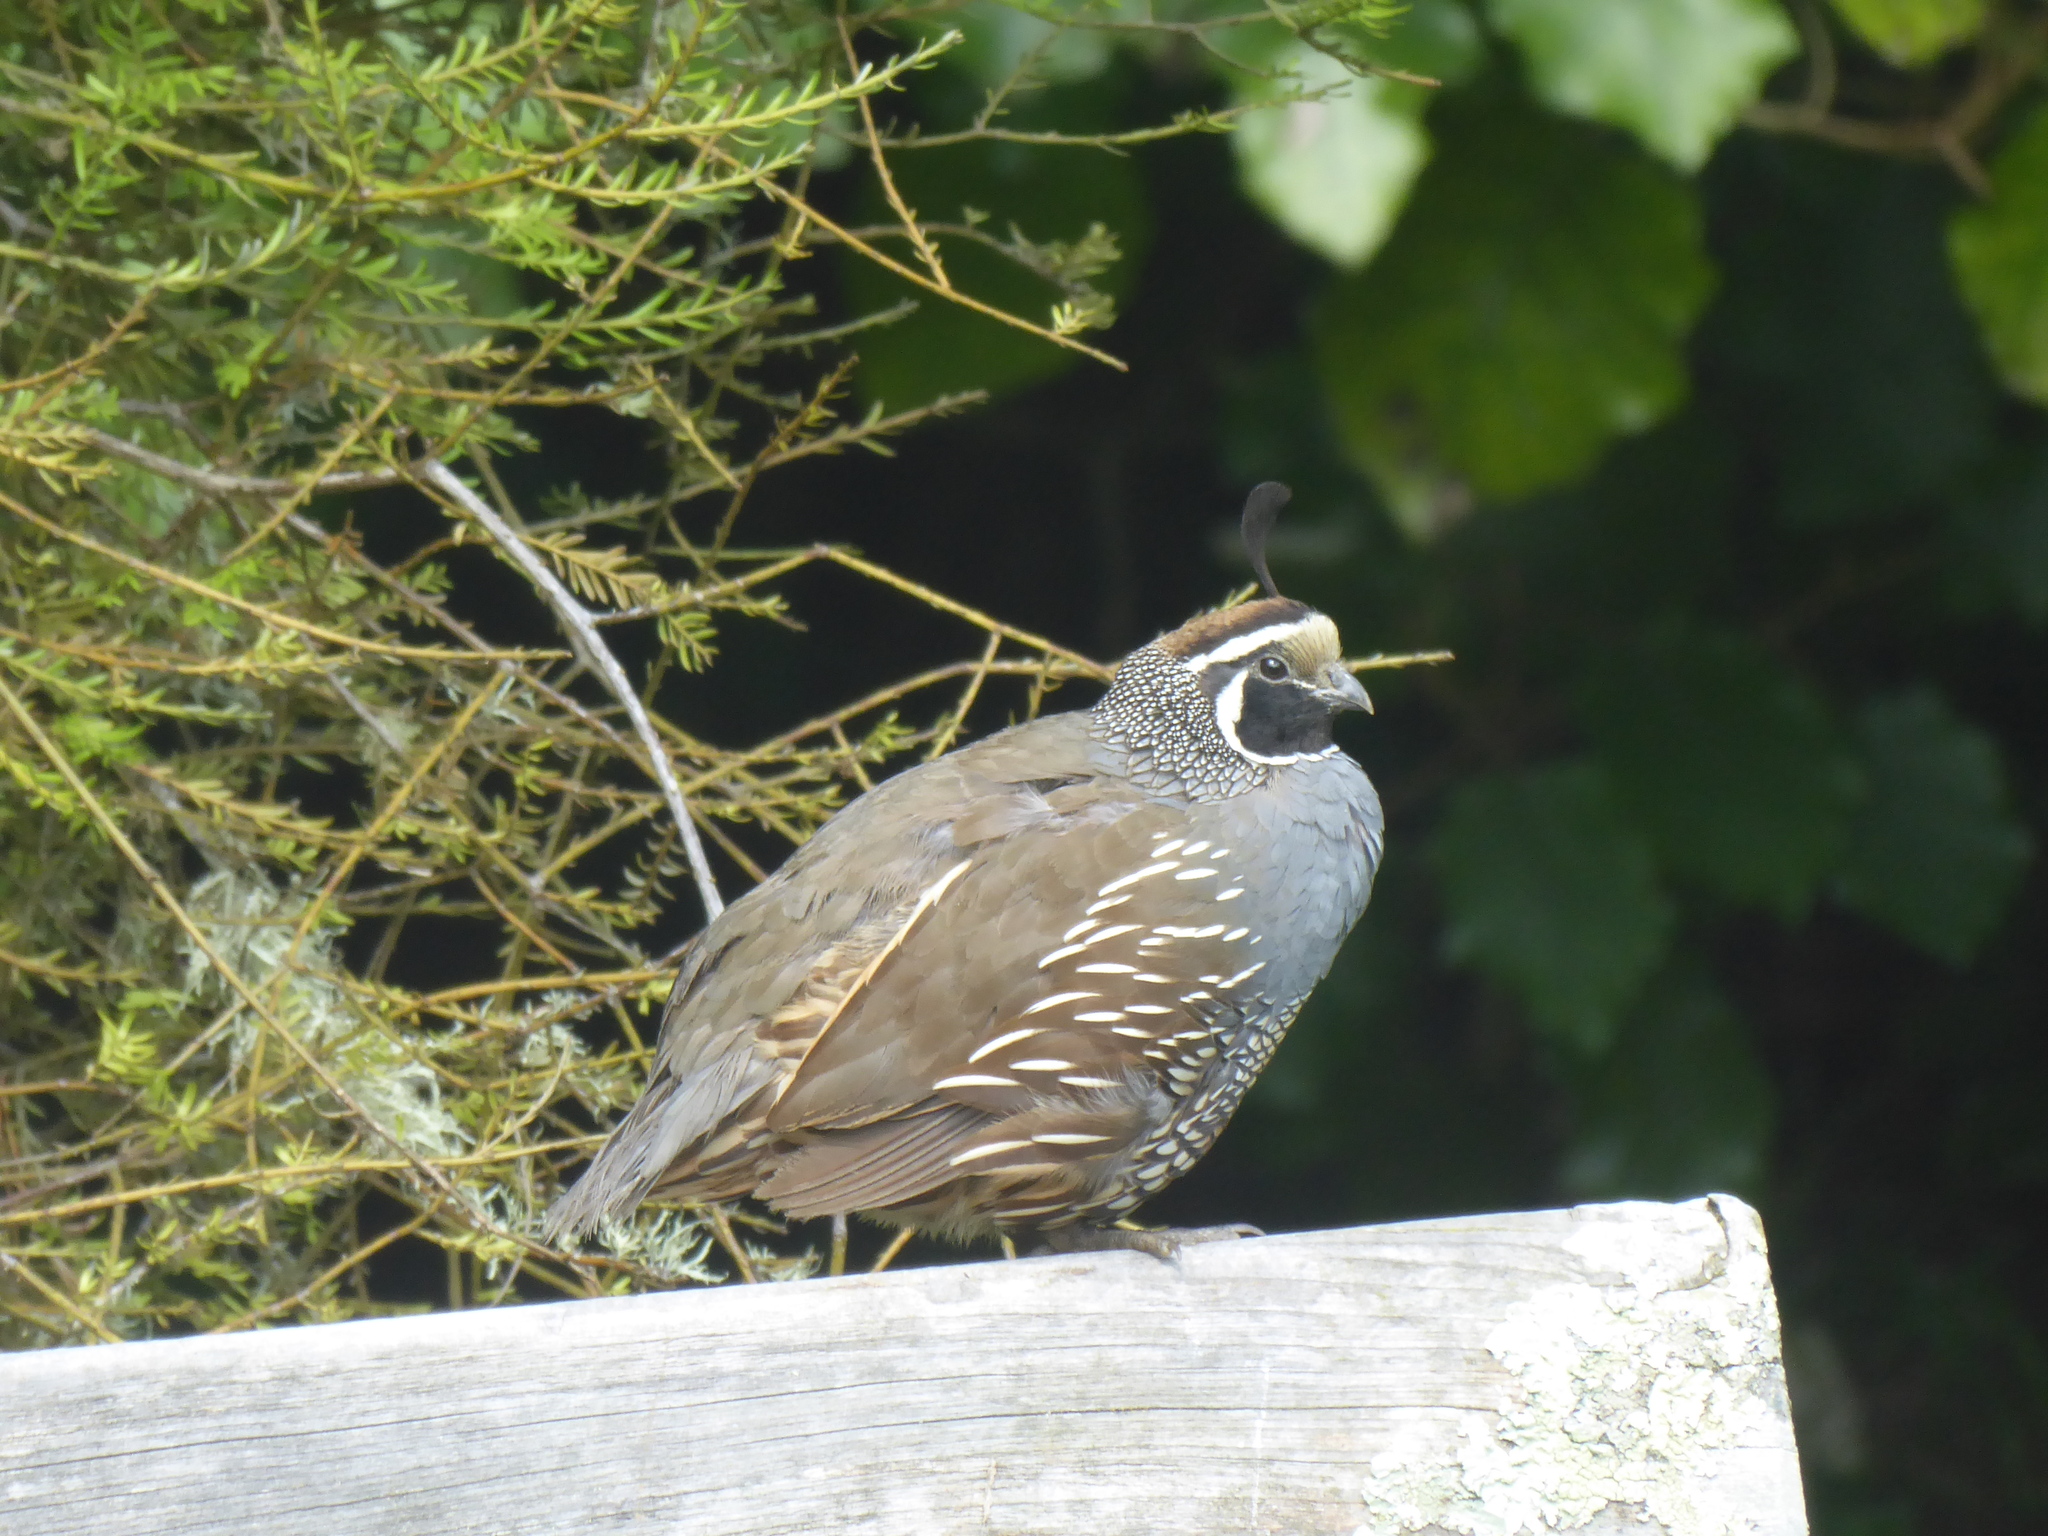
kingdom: Animalia
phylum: Chordata
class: Aves
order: Galliformes
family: Odontophoridae
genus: Callipepla
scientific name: Callipepla californica
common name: California quail
